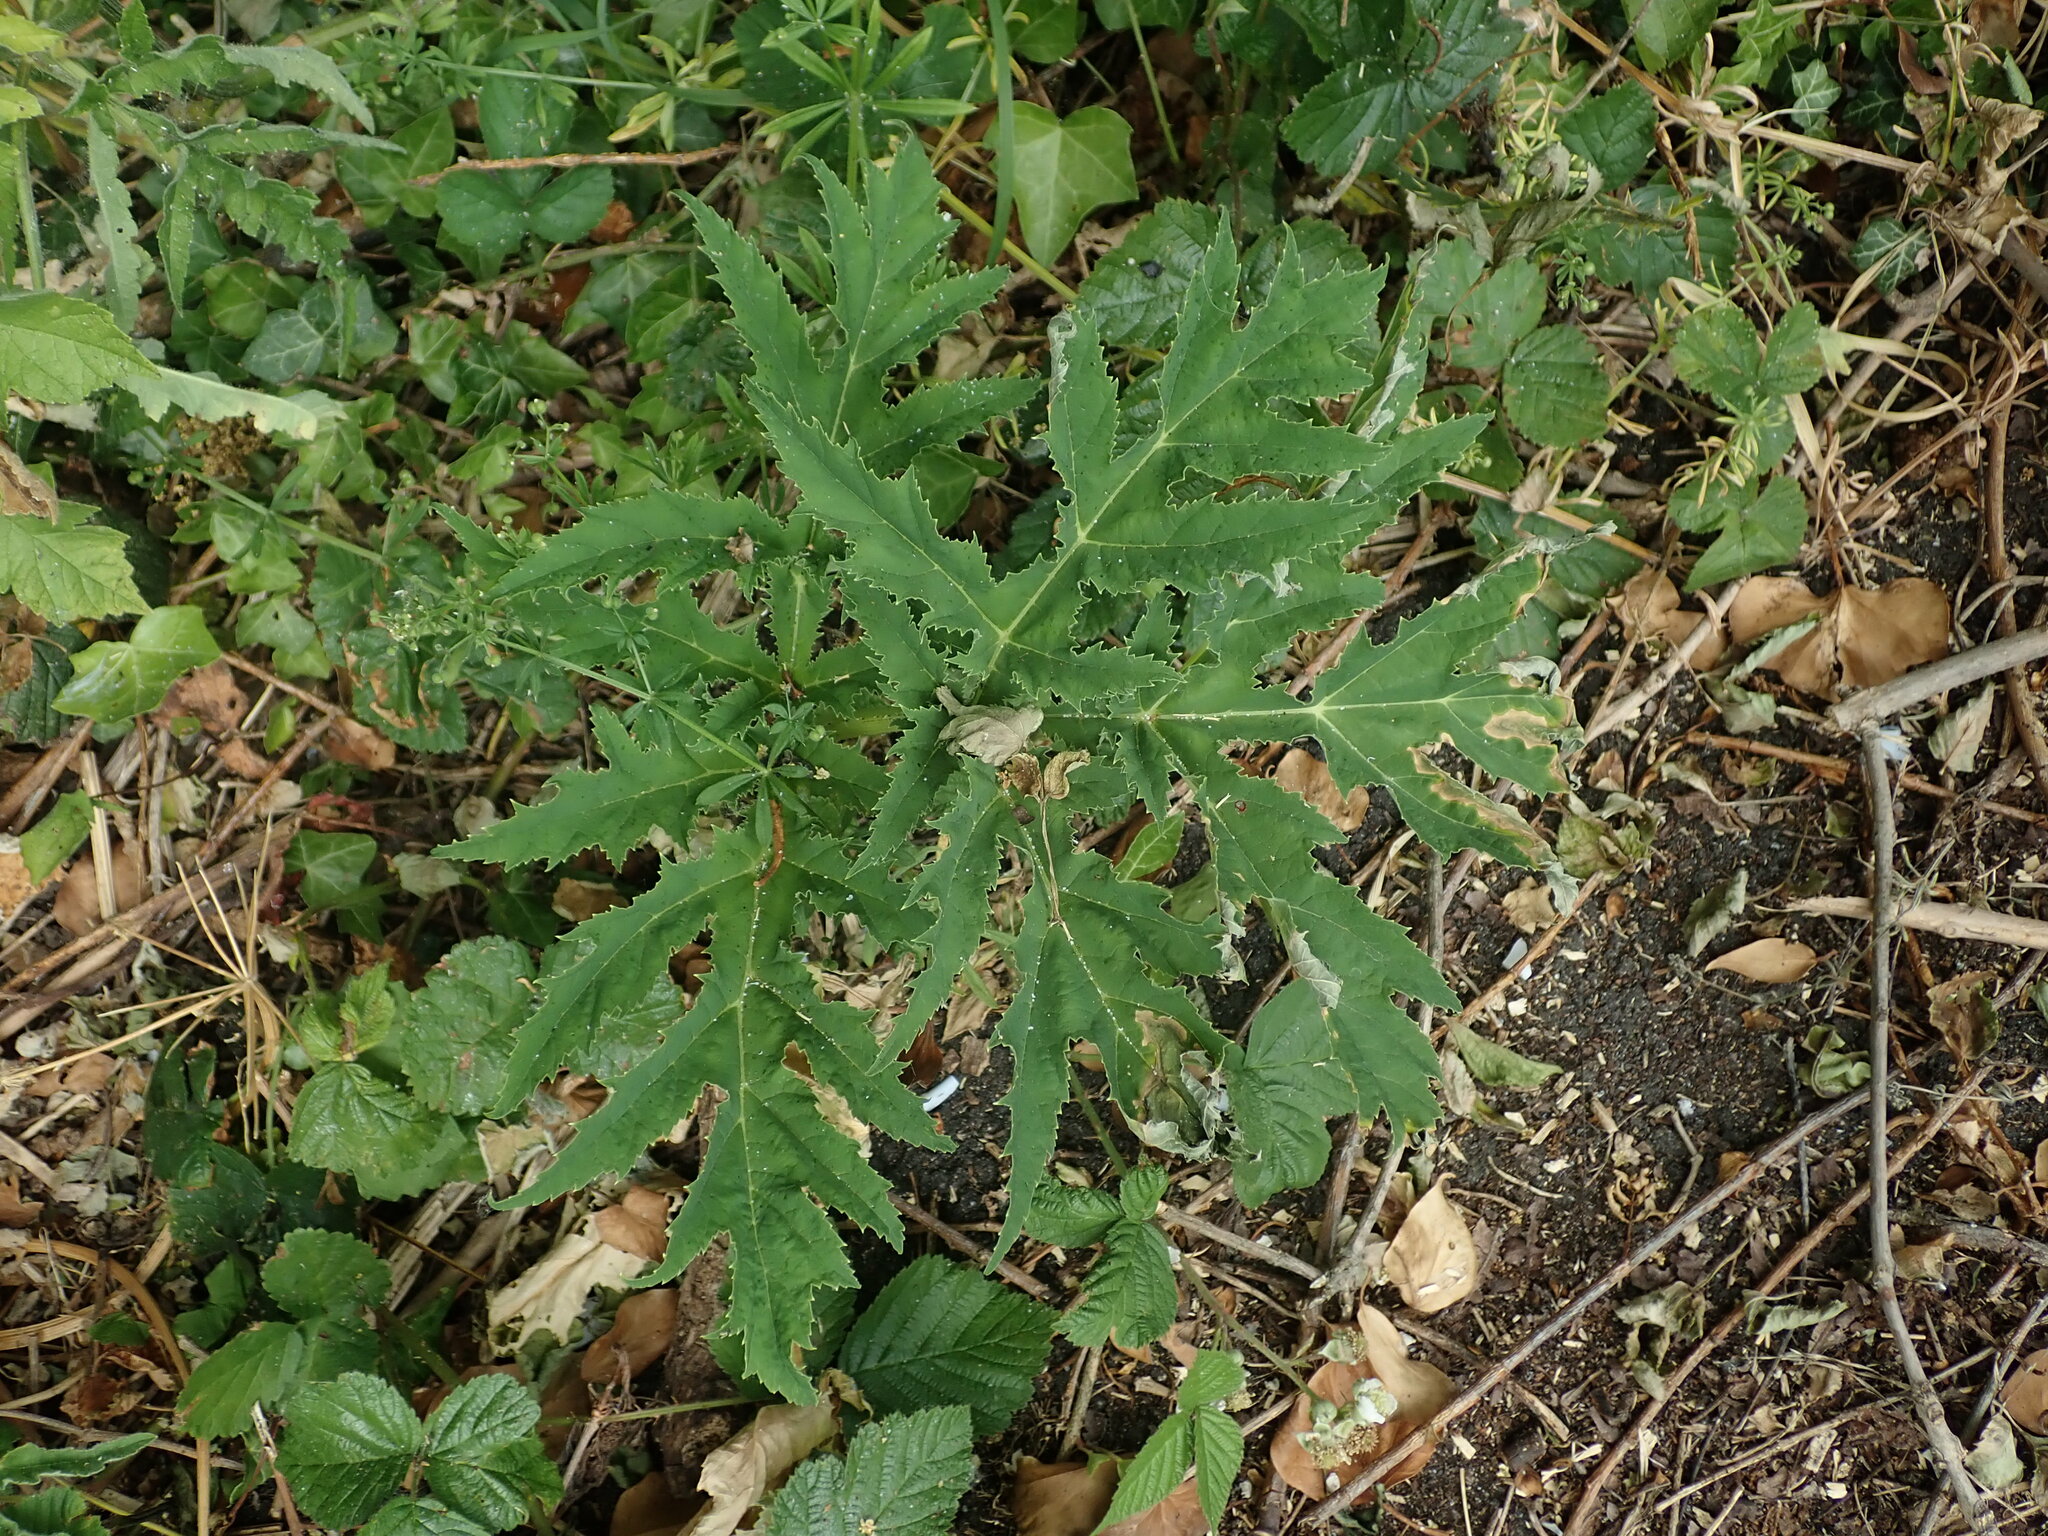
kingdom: Plantae
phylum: Tracheophyta
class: Magnoliopsida
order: Apiales
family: Apiaceae
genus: Heracleum
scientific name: Heracleum mantegazzianum
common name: Giant hogweed
